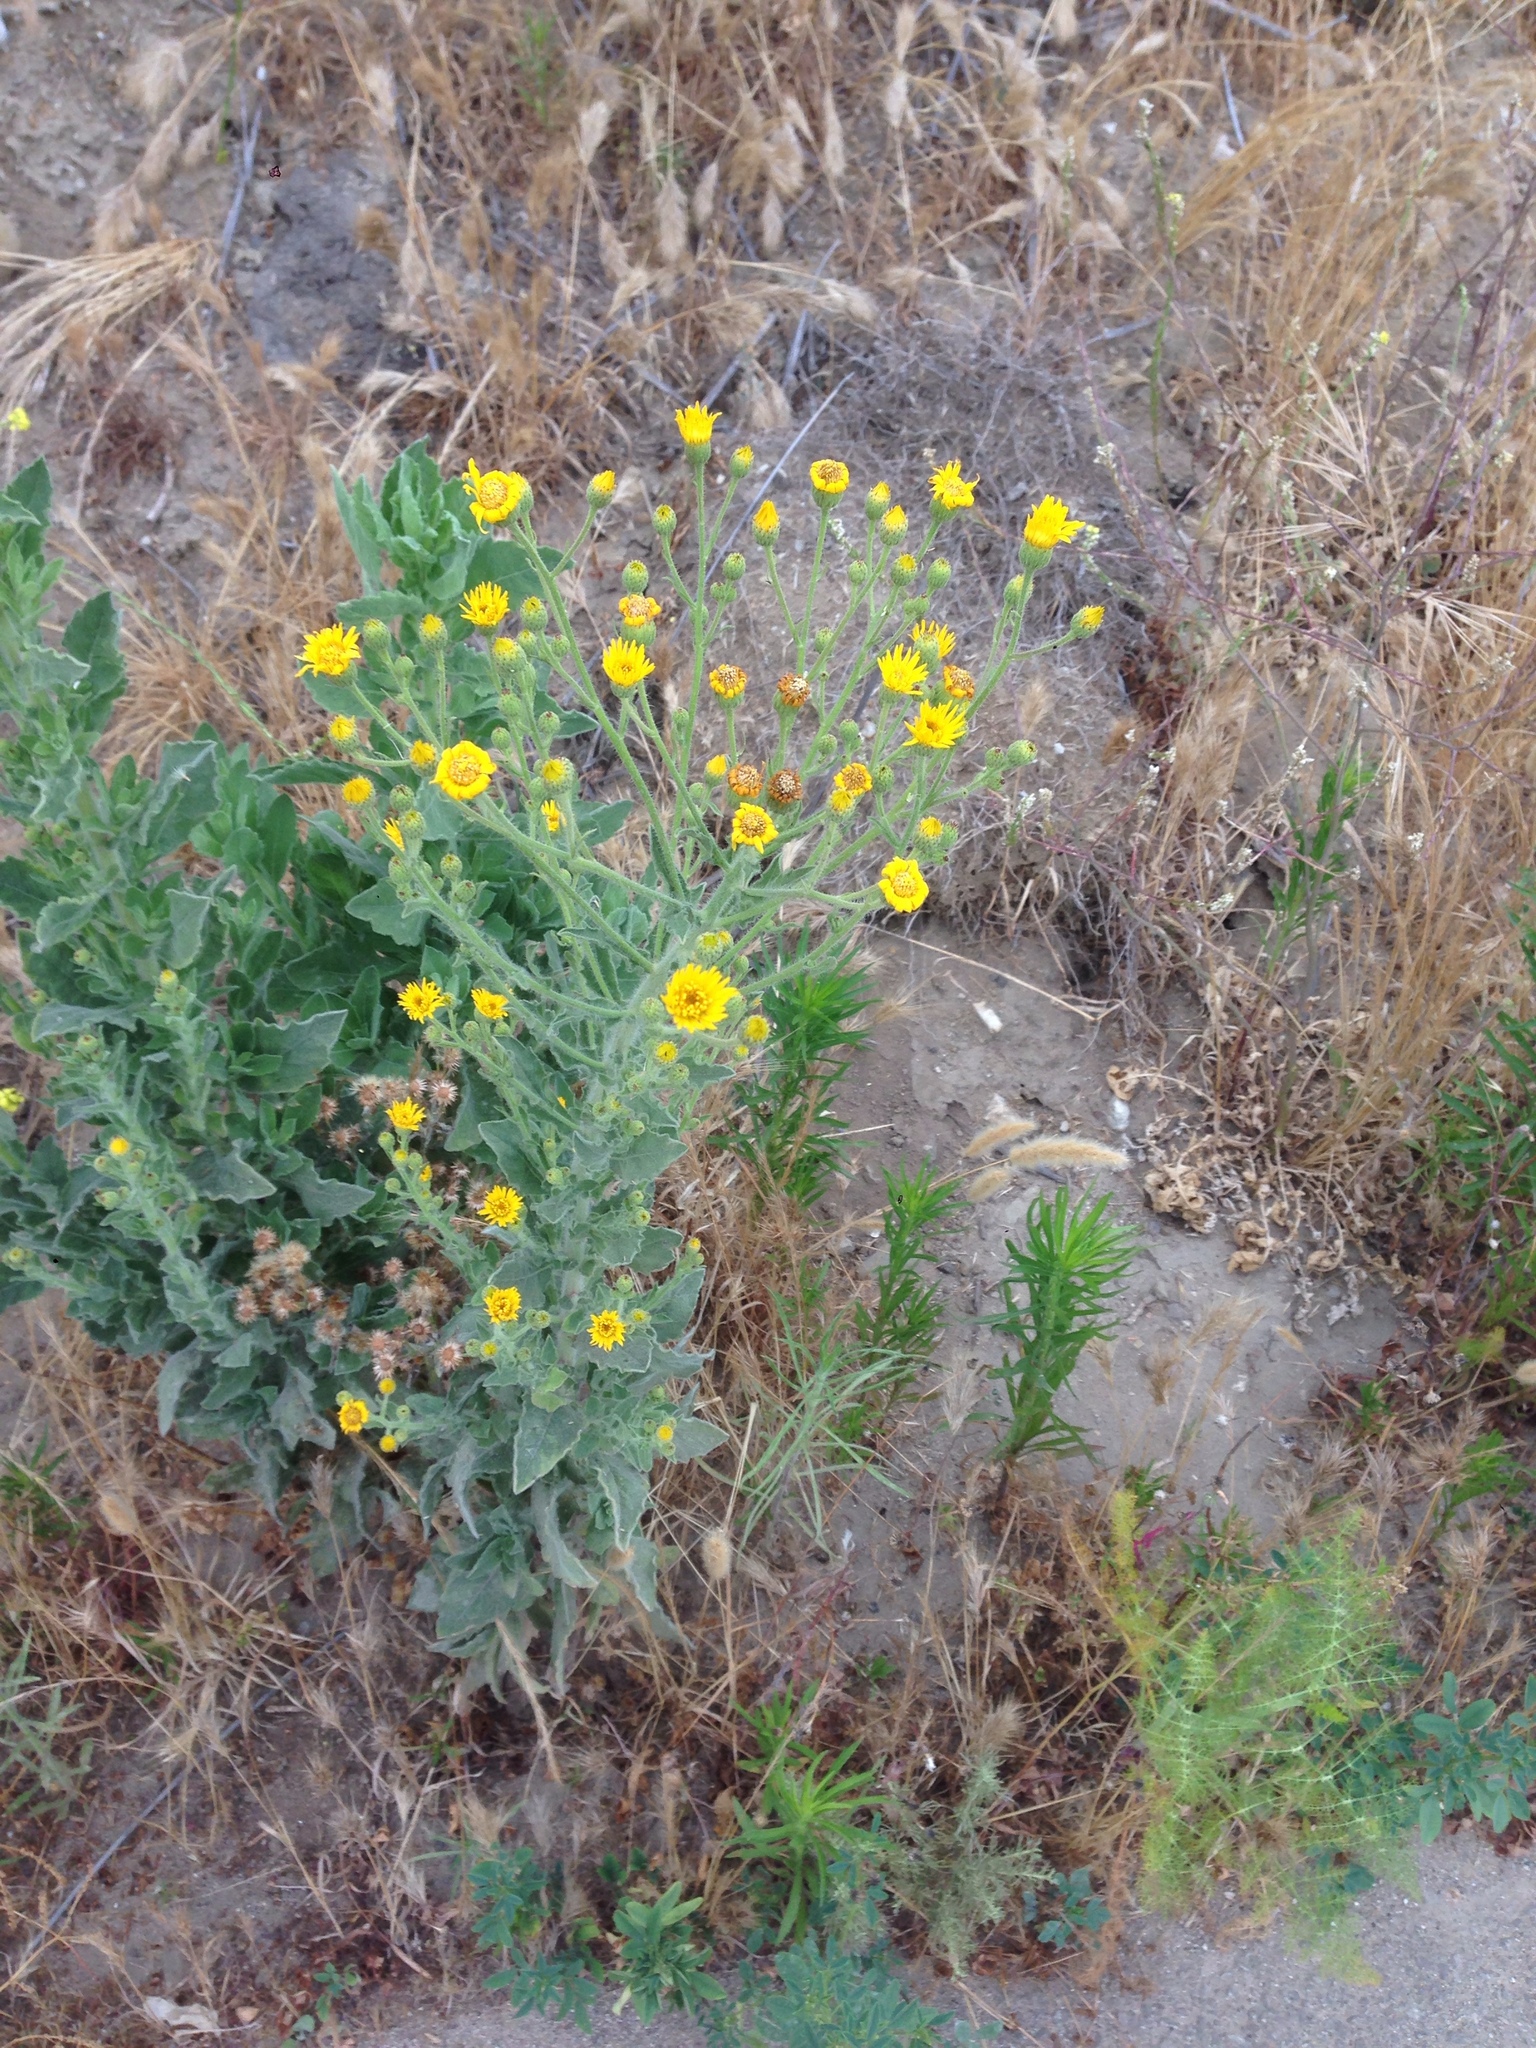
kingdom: Plantae
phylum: Tracheophyta
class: Magnoliopsida
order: Asterales
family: Asteraceae
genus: Heterotheca
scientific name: Heterotheca grandiflora
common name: Telegraphweed
